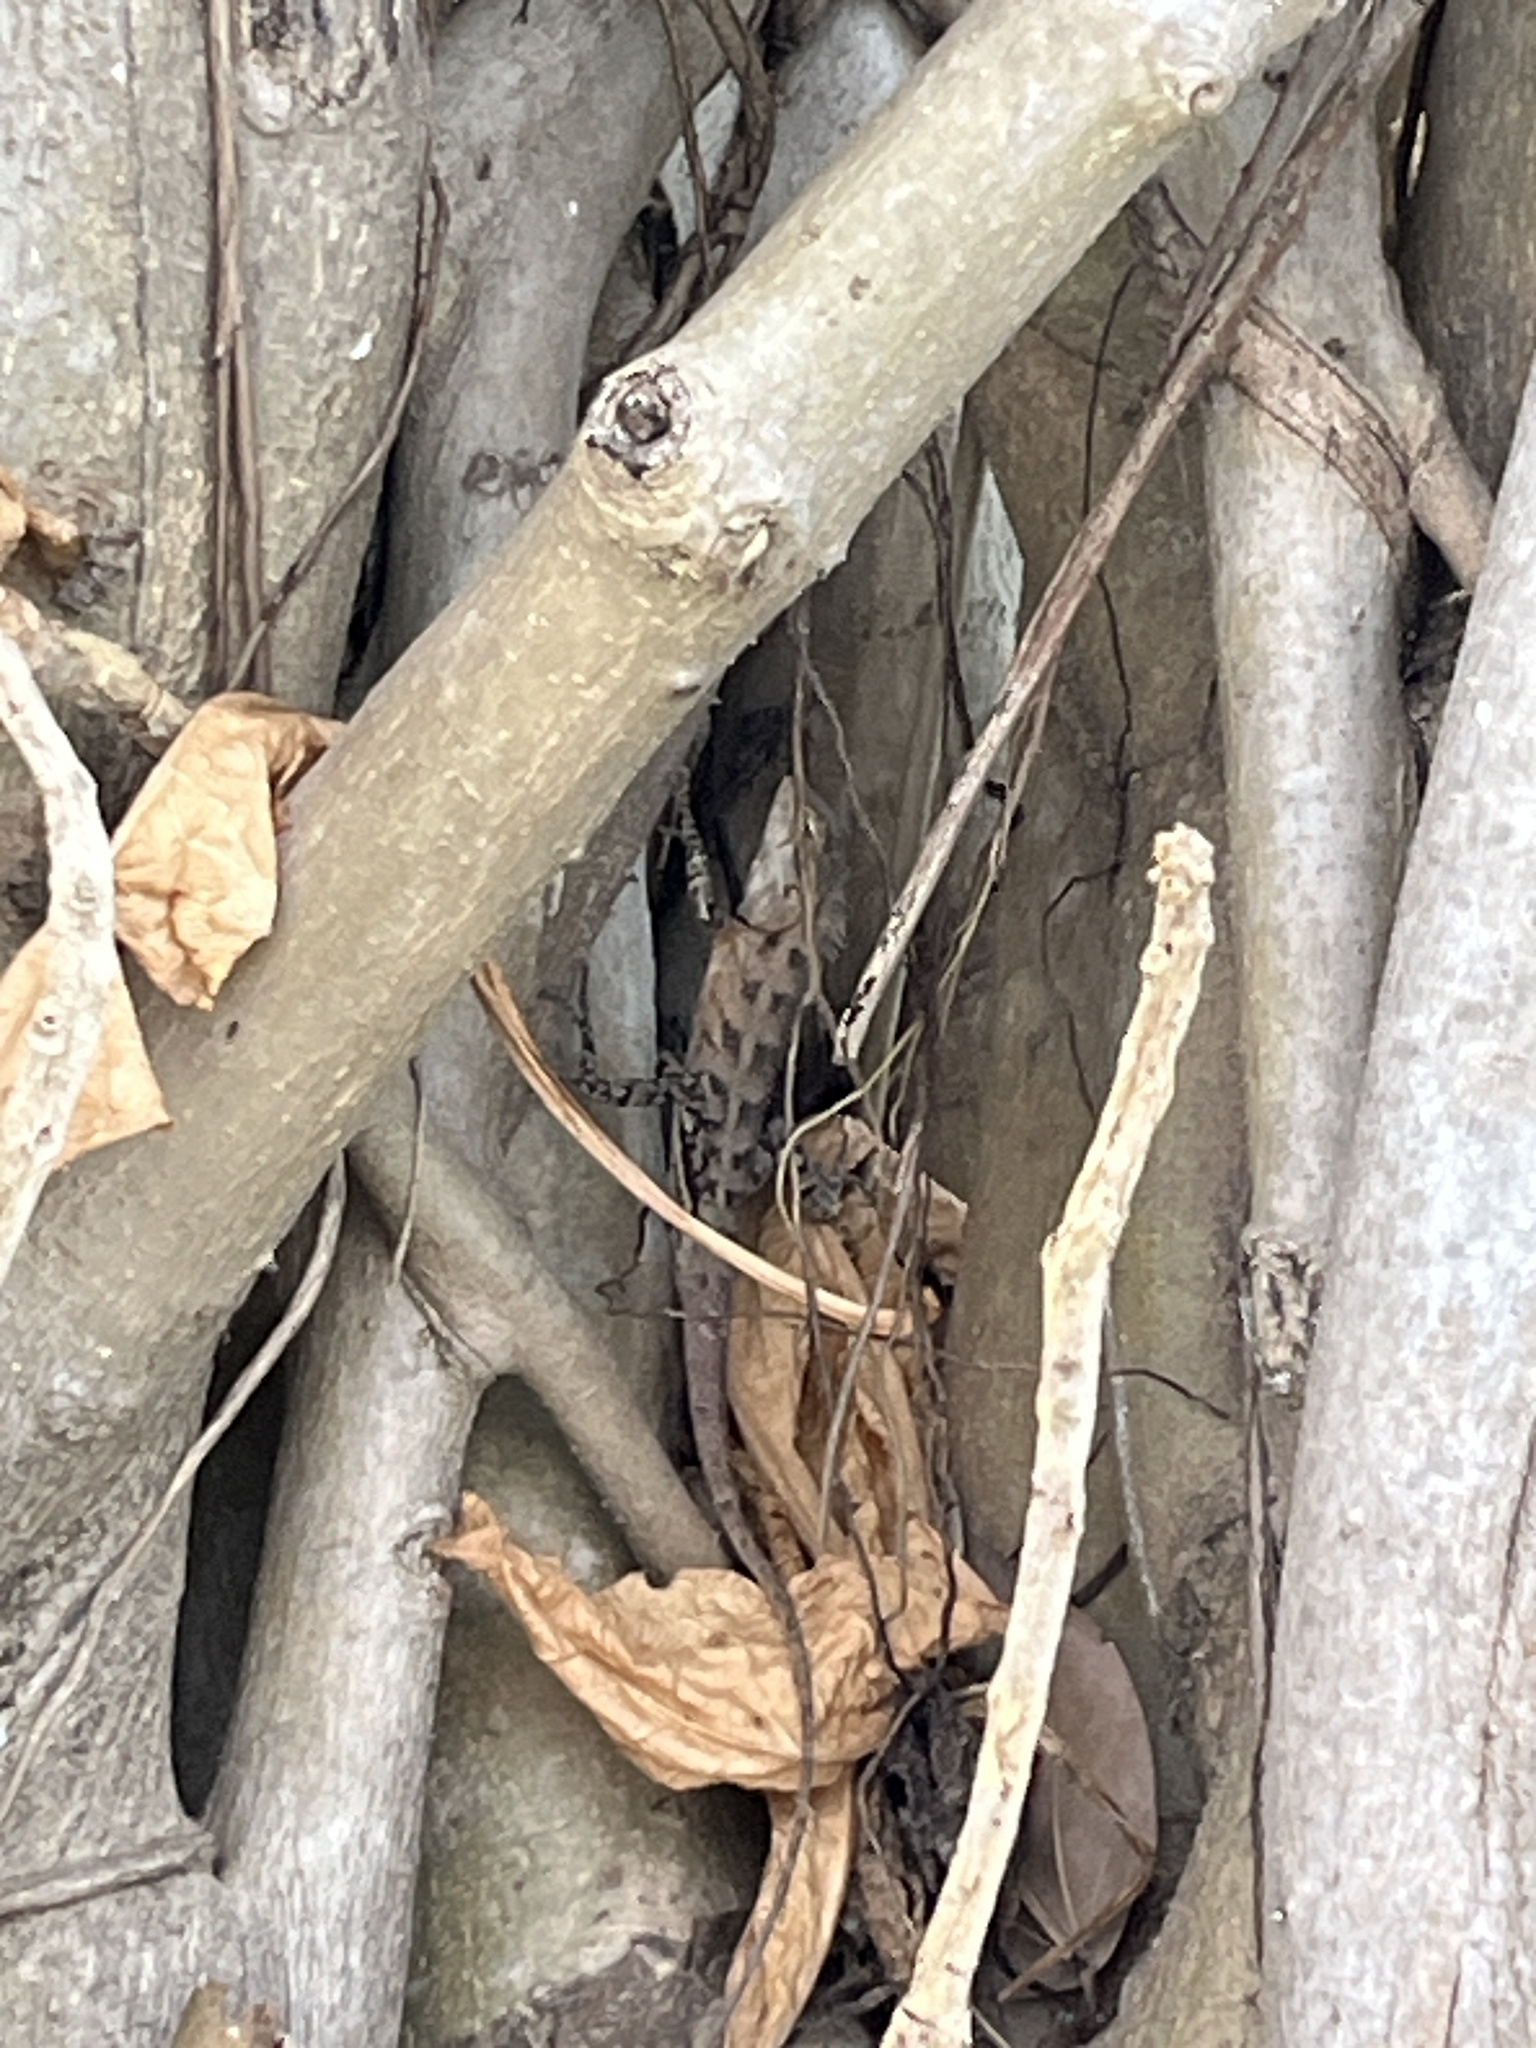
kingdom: Animalia
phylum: Chordata
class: Squamata
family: Agamidae
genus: Calotes
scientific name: Calotes versicolor
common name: Oriental garden lizard
